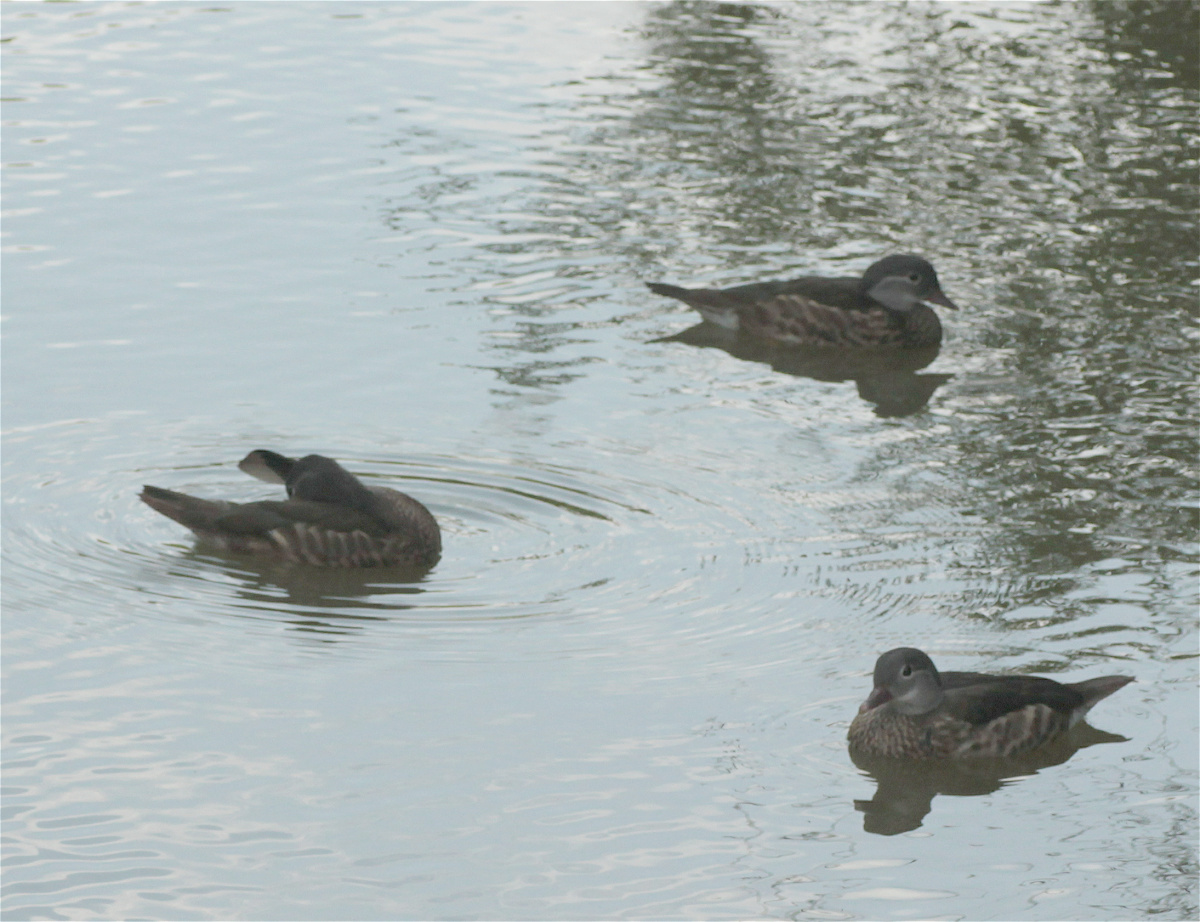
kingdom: Animalia
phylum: Chordata
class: Aves
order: Anseriformes
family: Anatidae
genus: Aix
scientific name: Aix galericulata
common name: Mandarin duck
